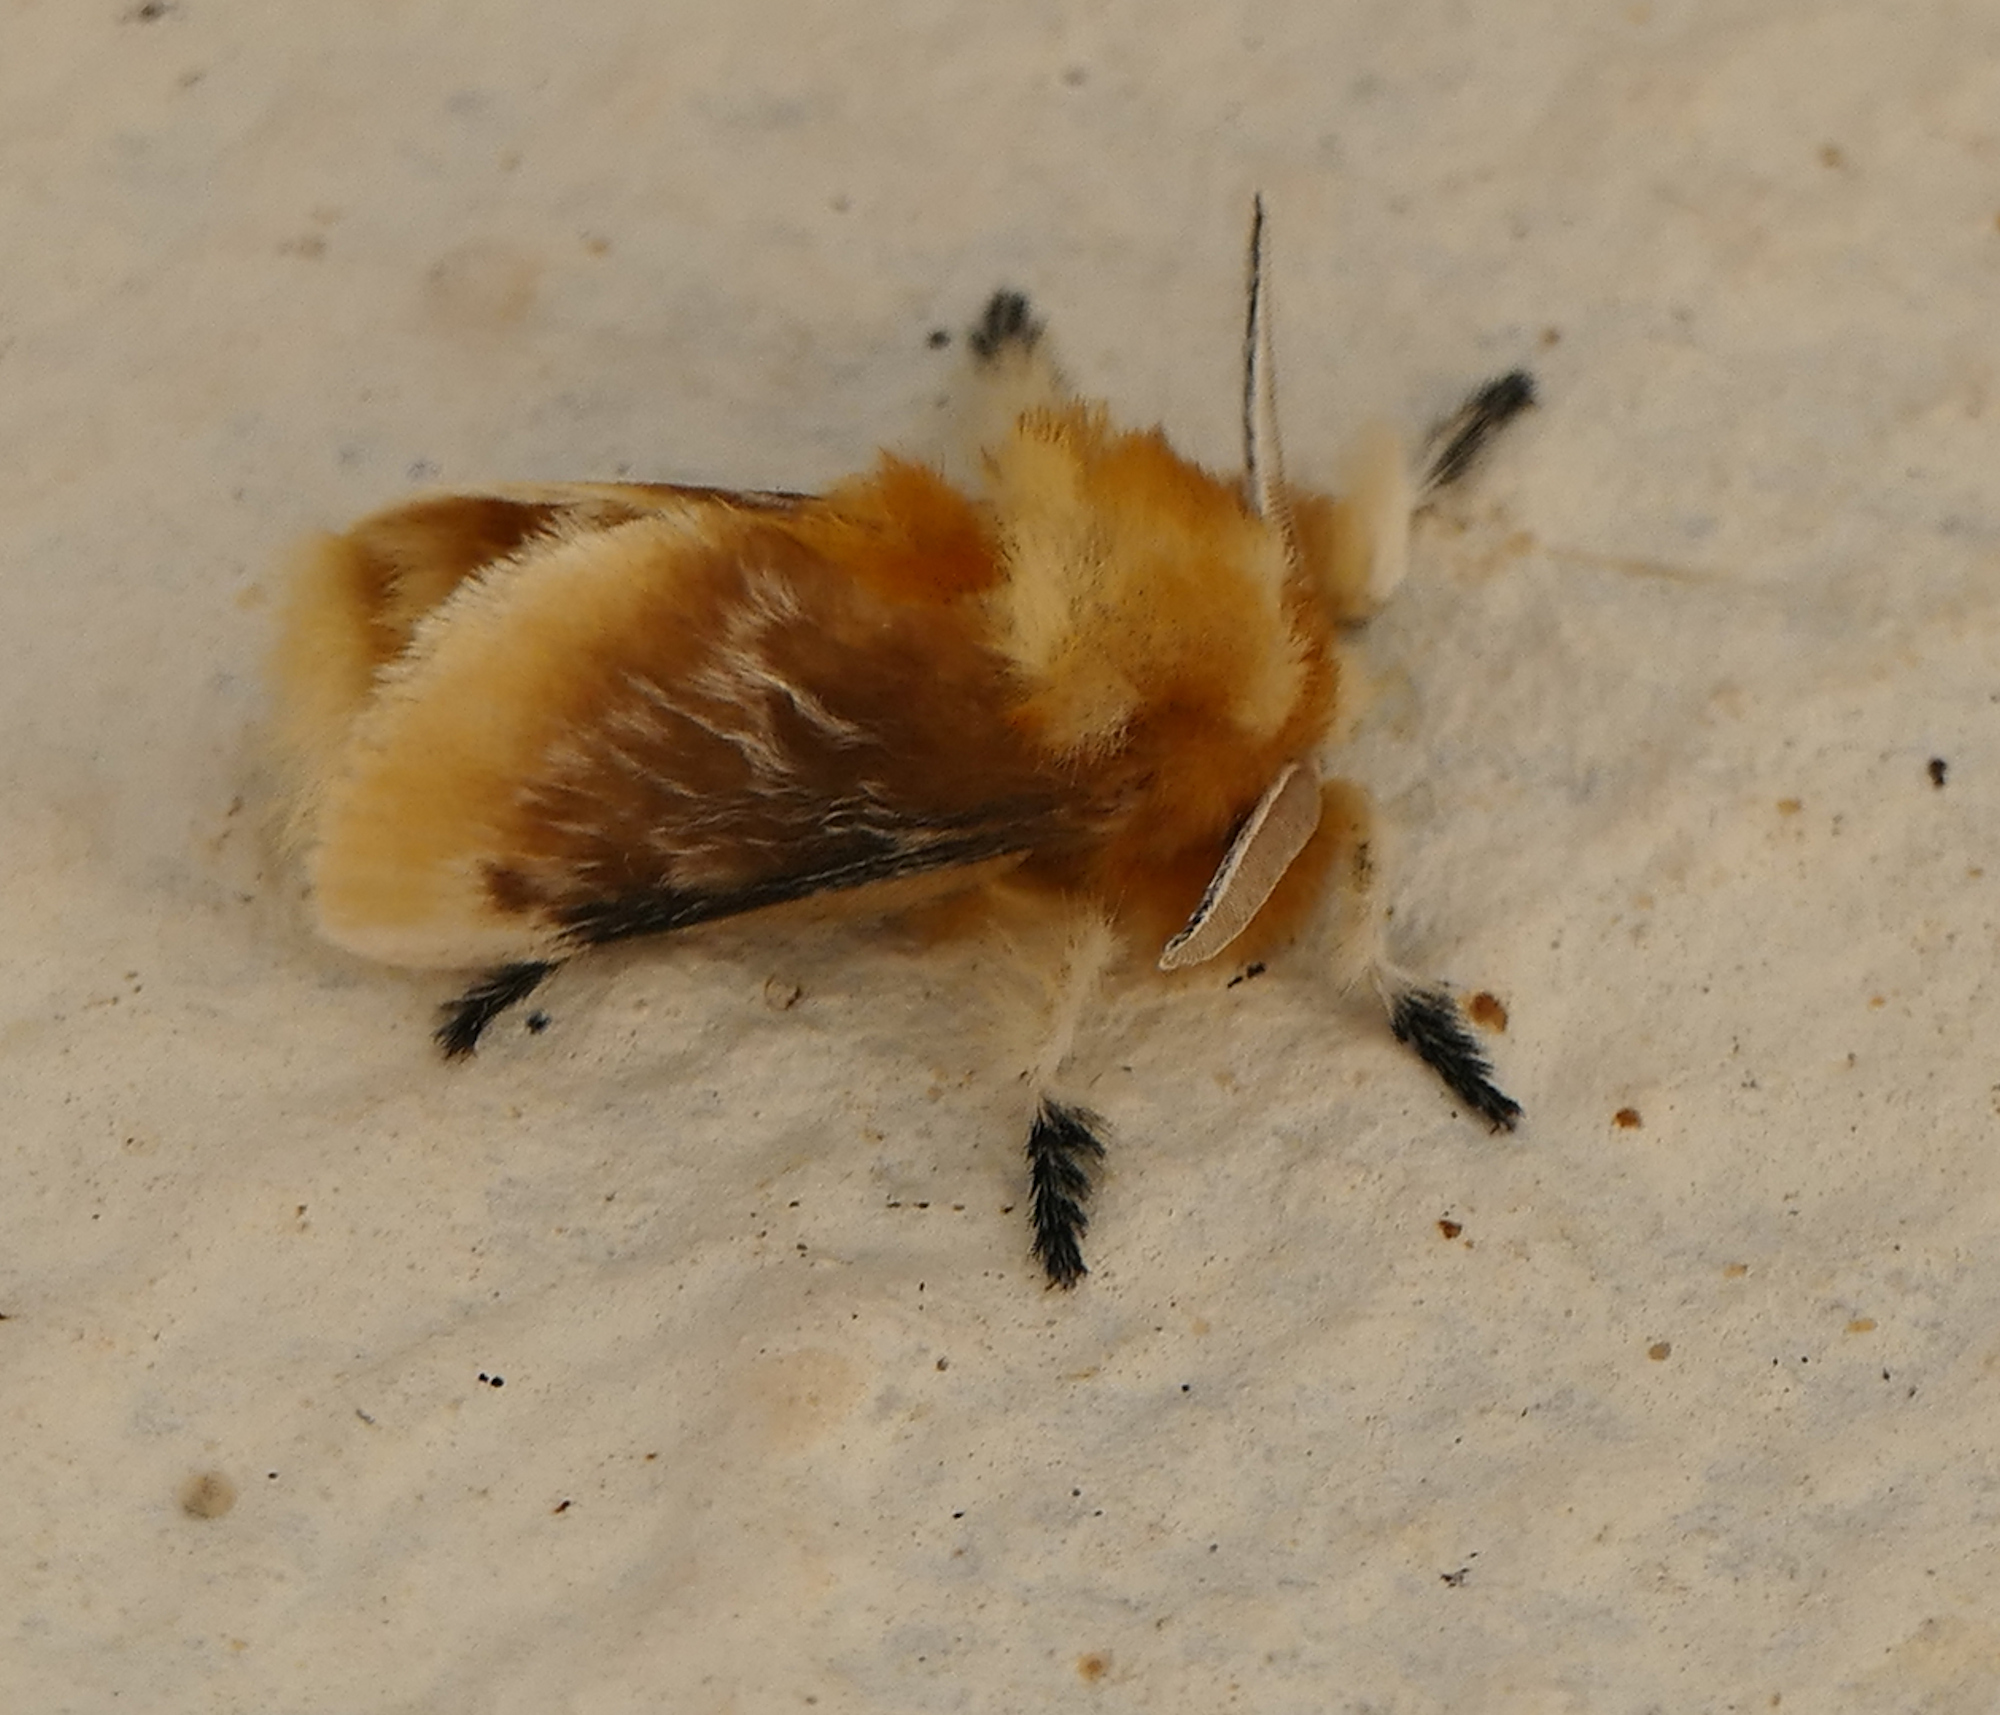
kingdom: Animalia
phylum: Arthropoda
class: Insecta
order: Lepidoptera
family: Megalopygidae
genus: Megalopyge
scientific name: Megalopyge opercularis
